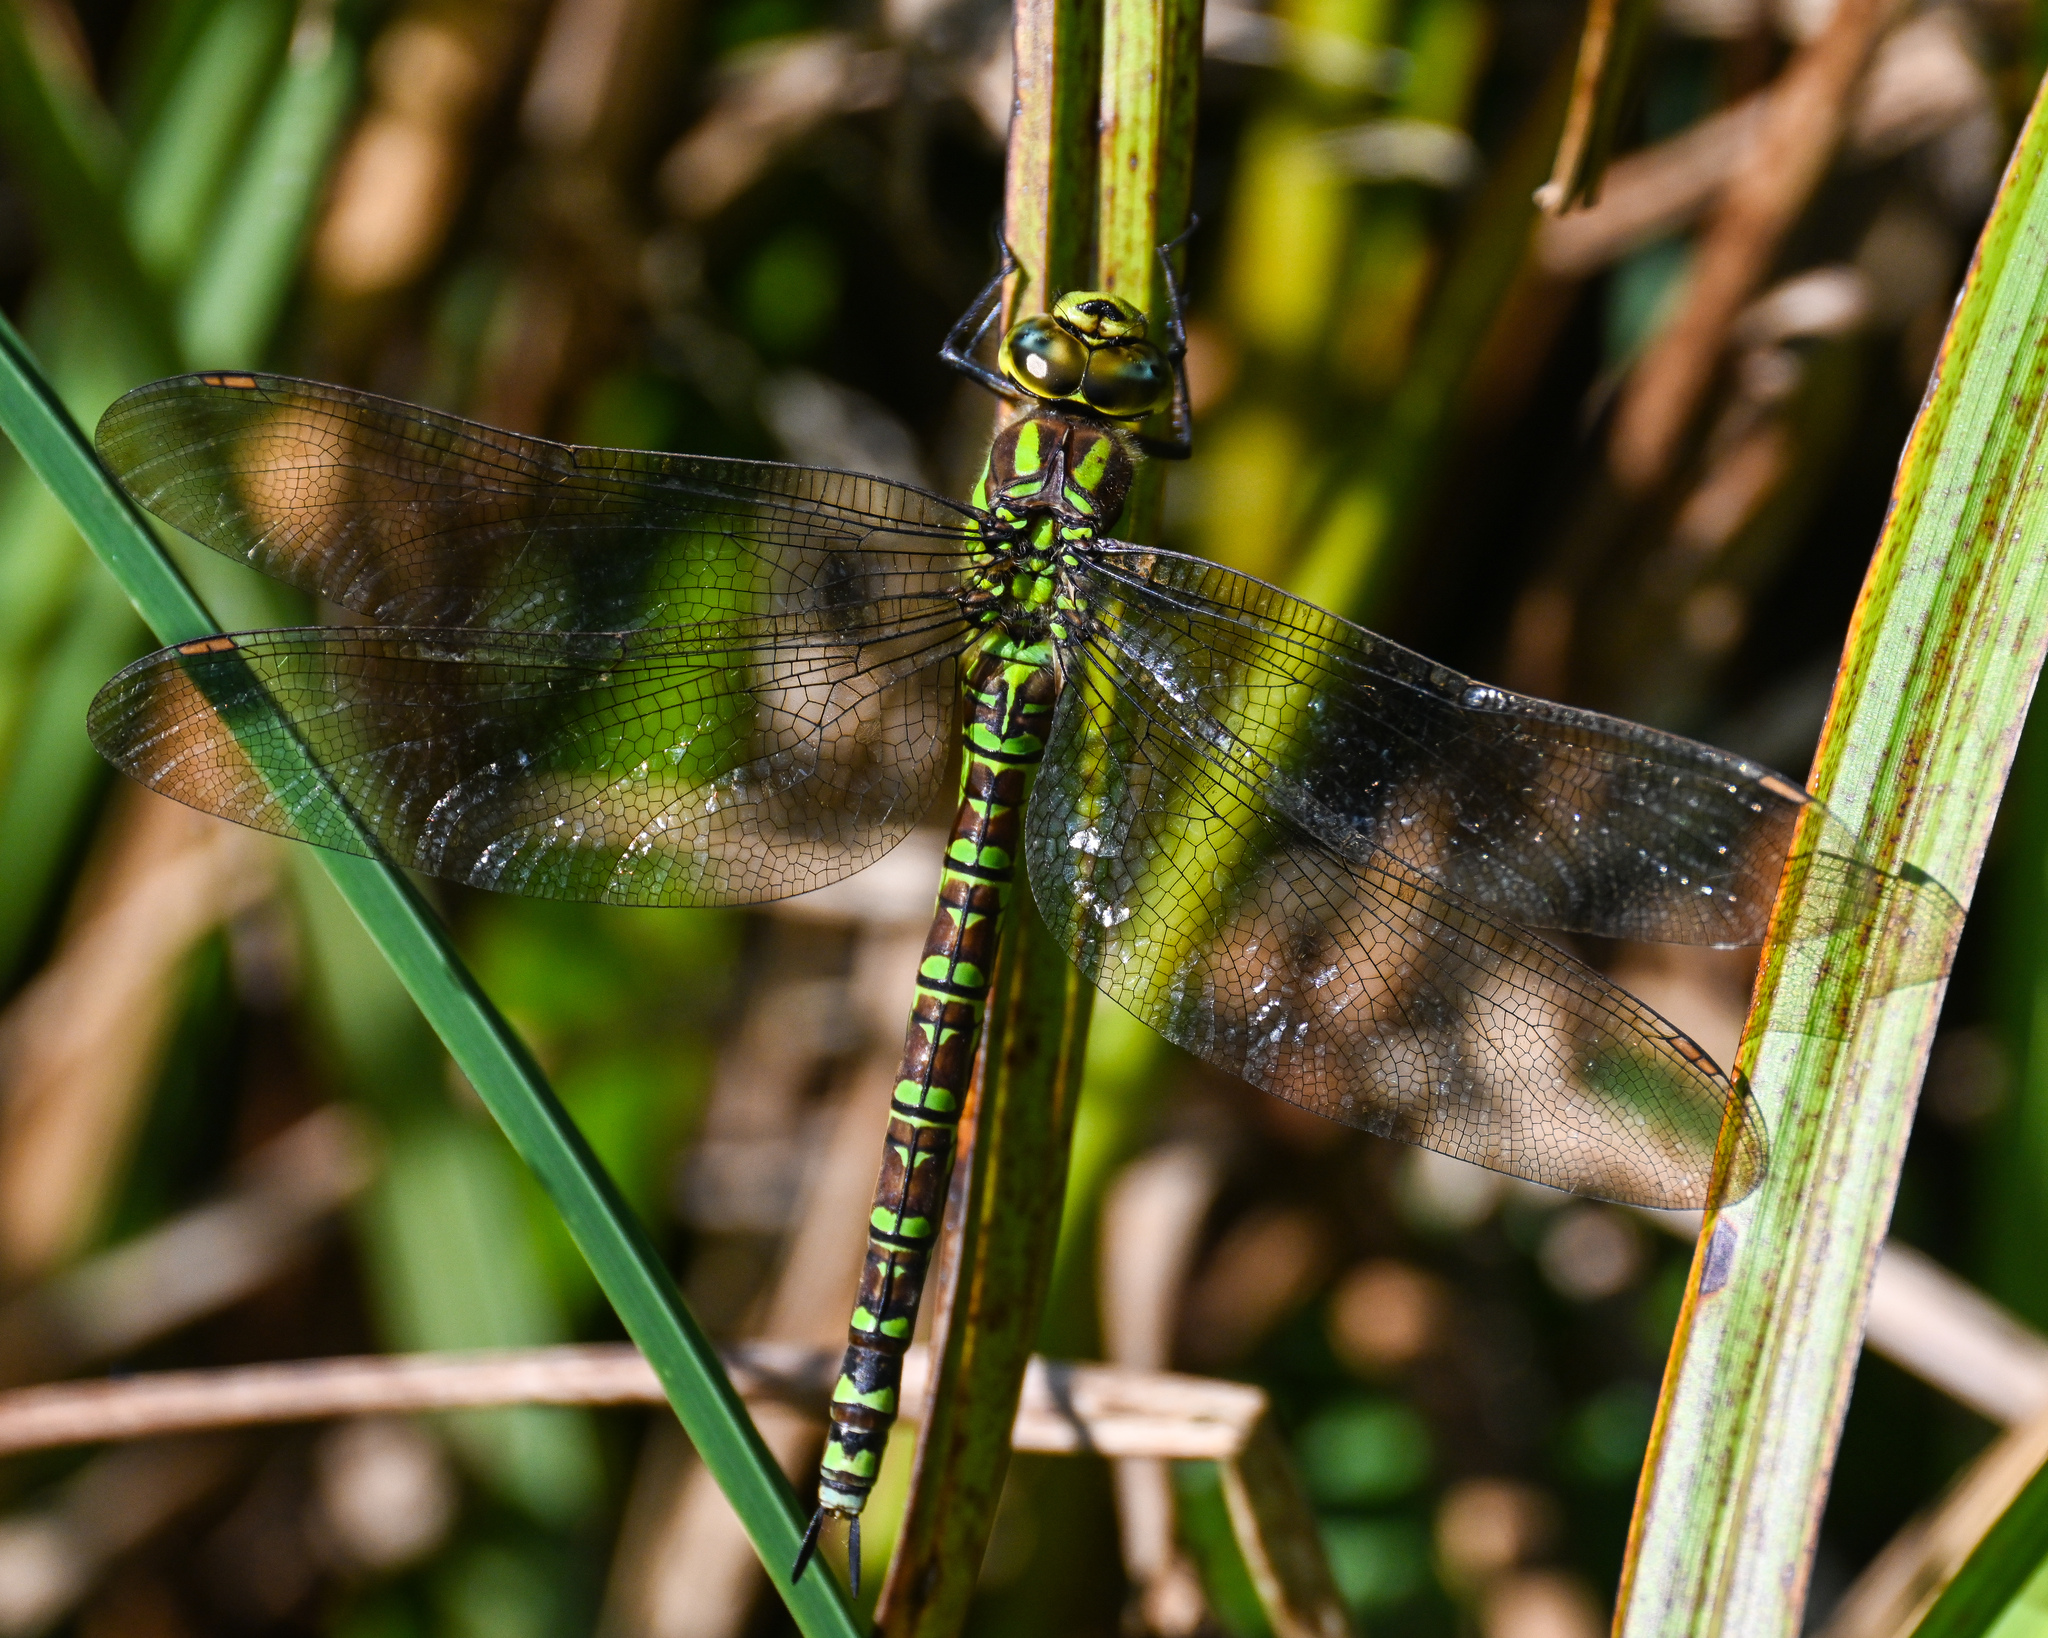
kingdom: Animalia
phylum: Arthropoda
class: Insecta
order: Odonata
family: Aeshnidae
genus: Aeshna
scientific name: Aeshna cyanea
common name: Southern hawker
